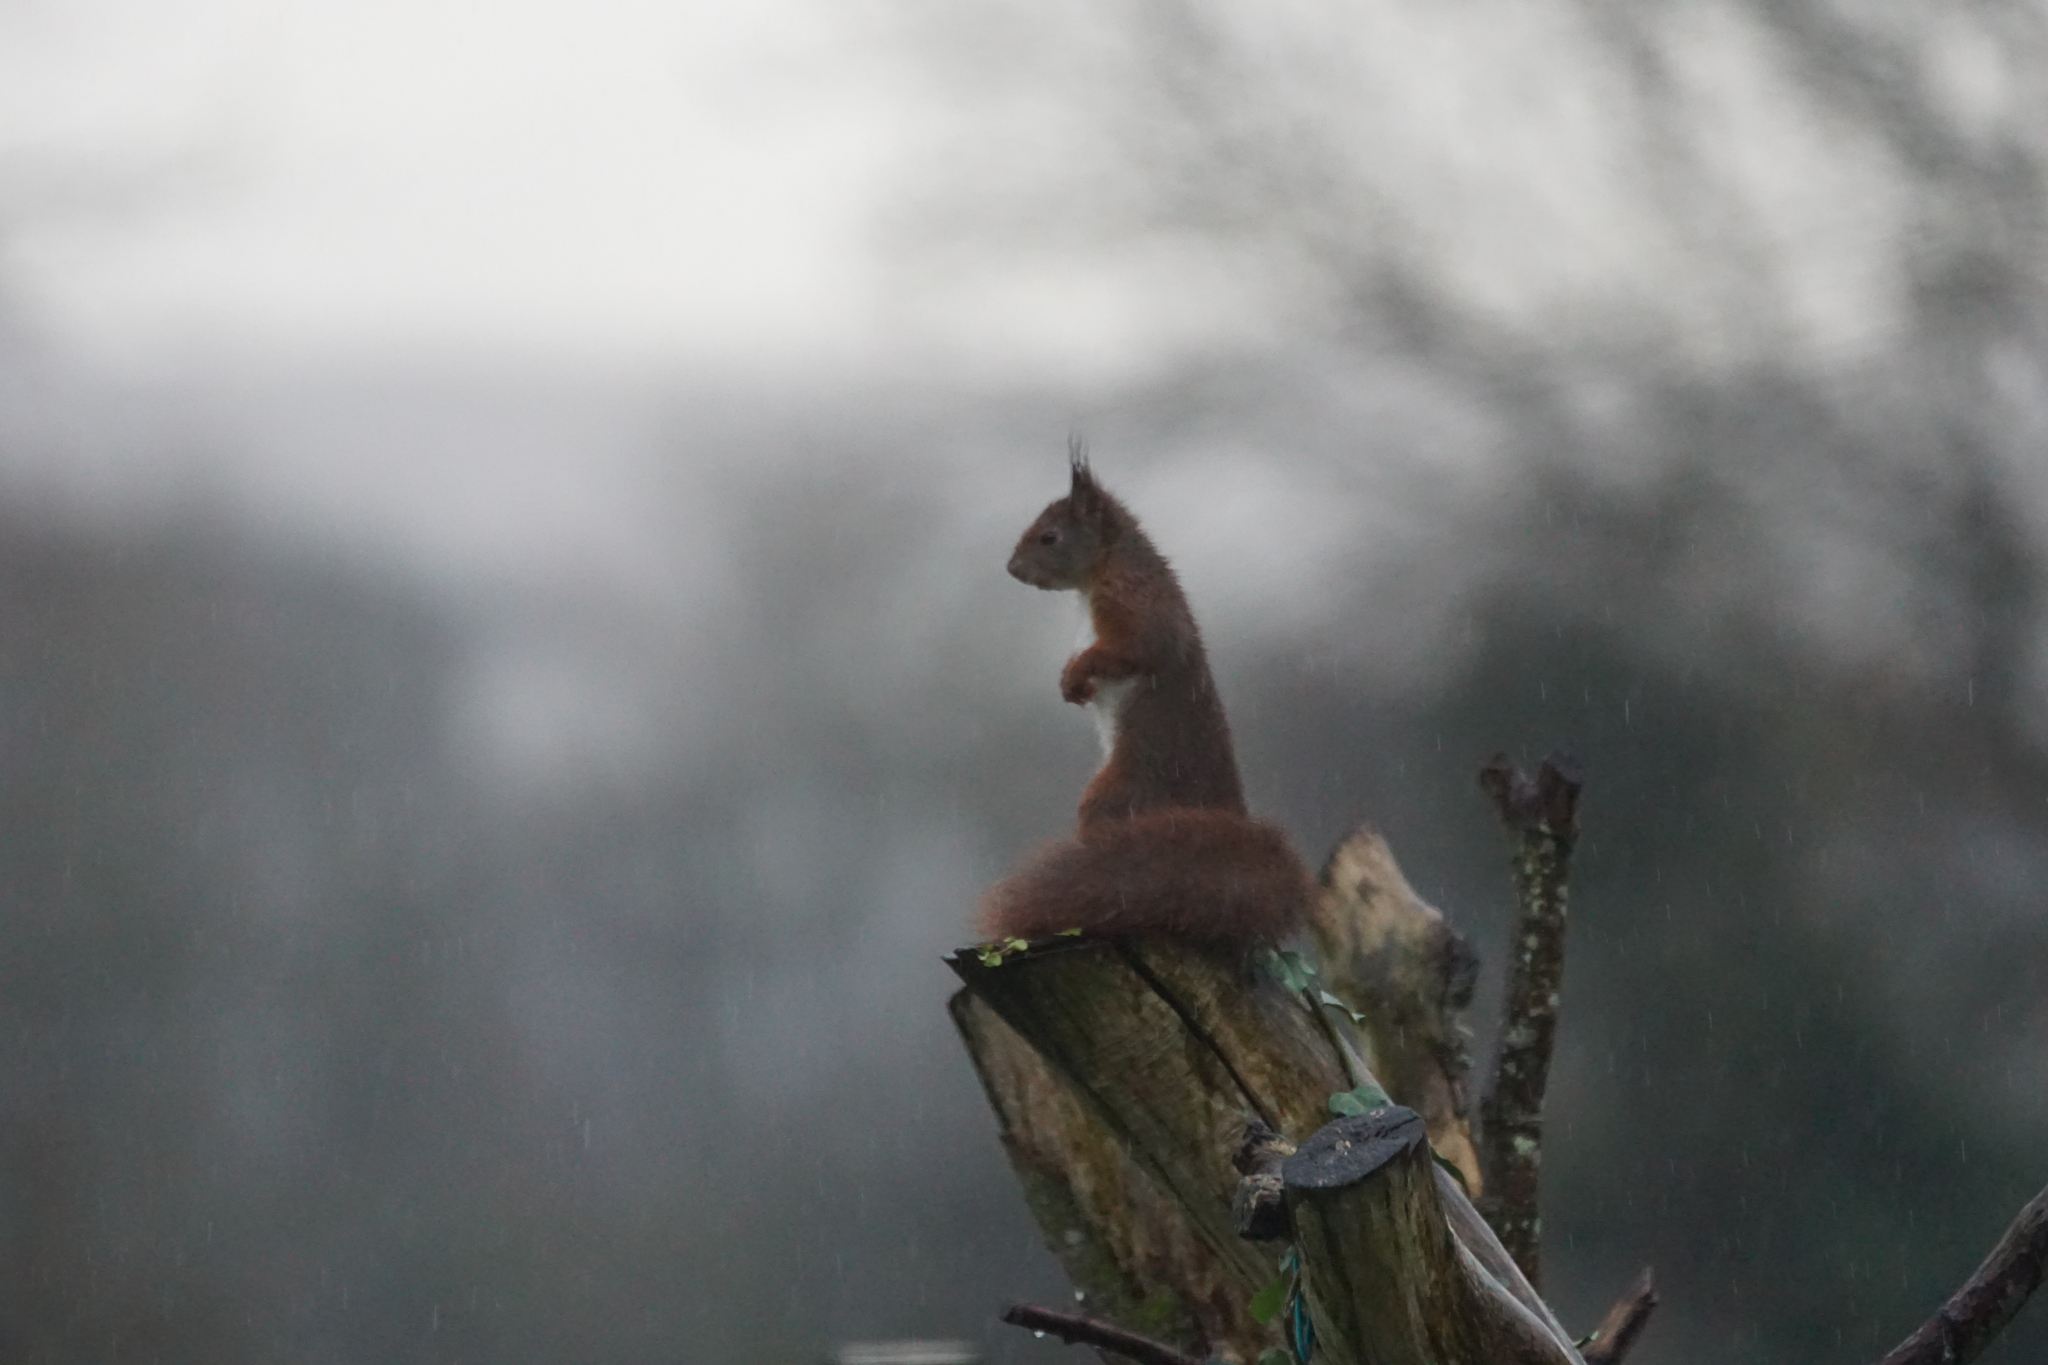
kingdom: Animalia
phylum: Chordata
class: Mammalia
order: Rodentia
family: Sciuridae
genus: Sciurus
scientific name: Sciurus vulgaris
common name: Eurasian red squirrel
